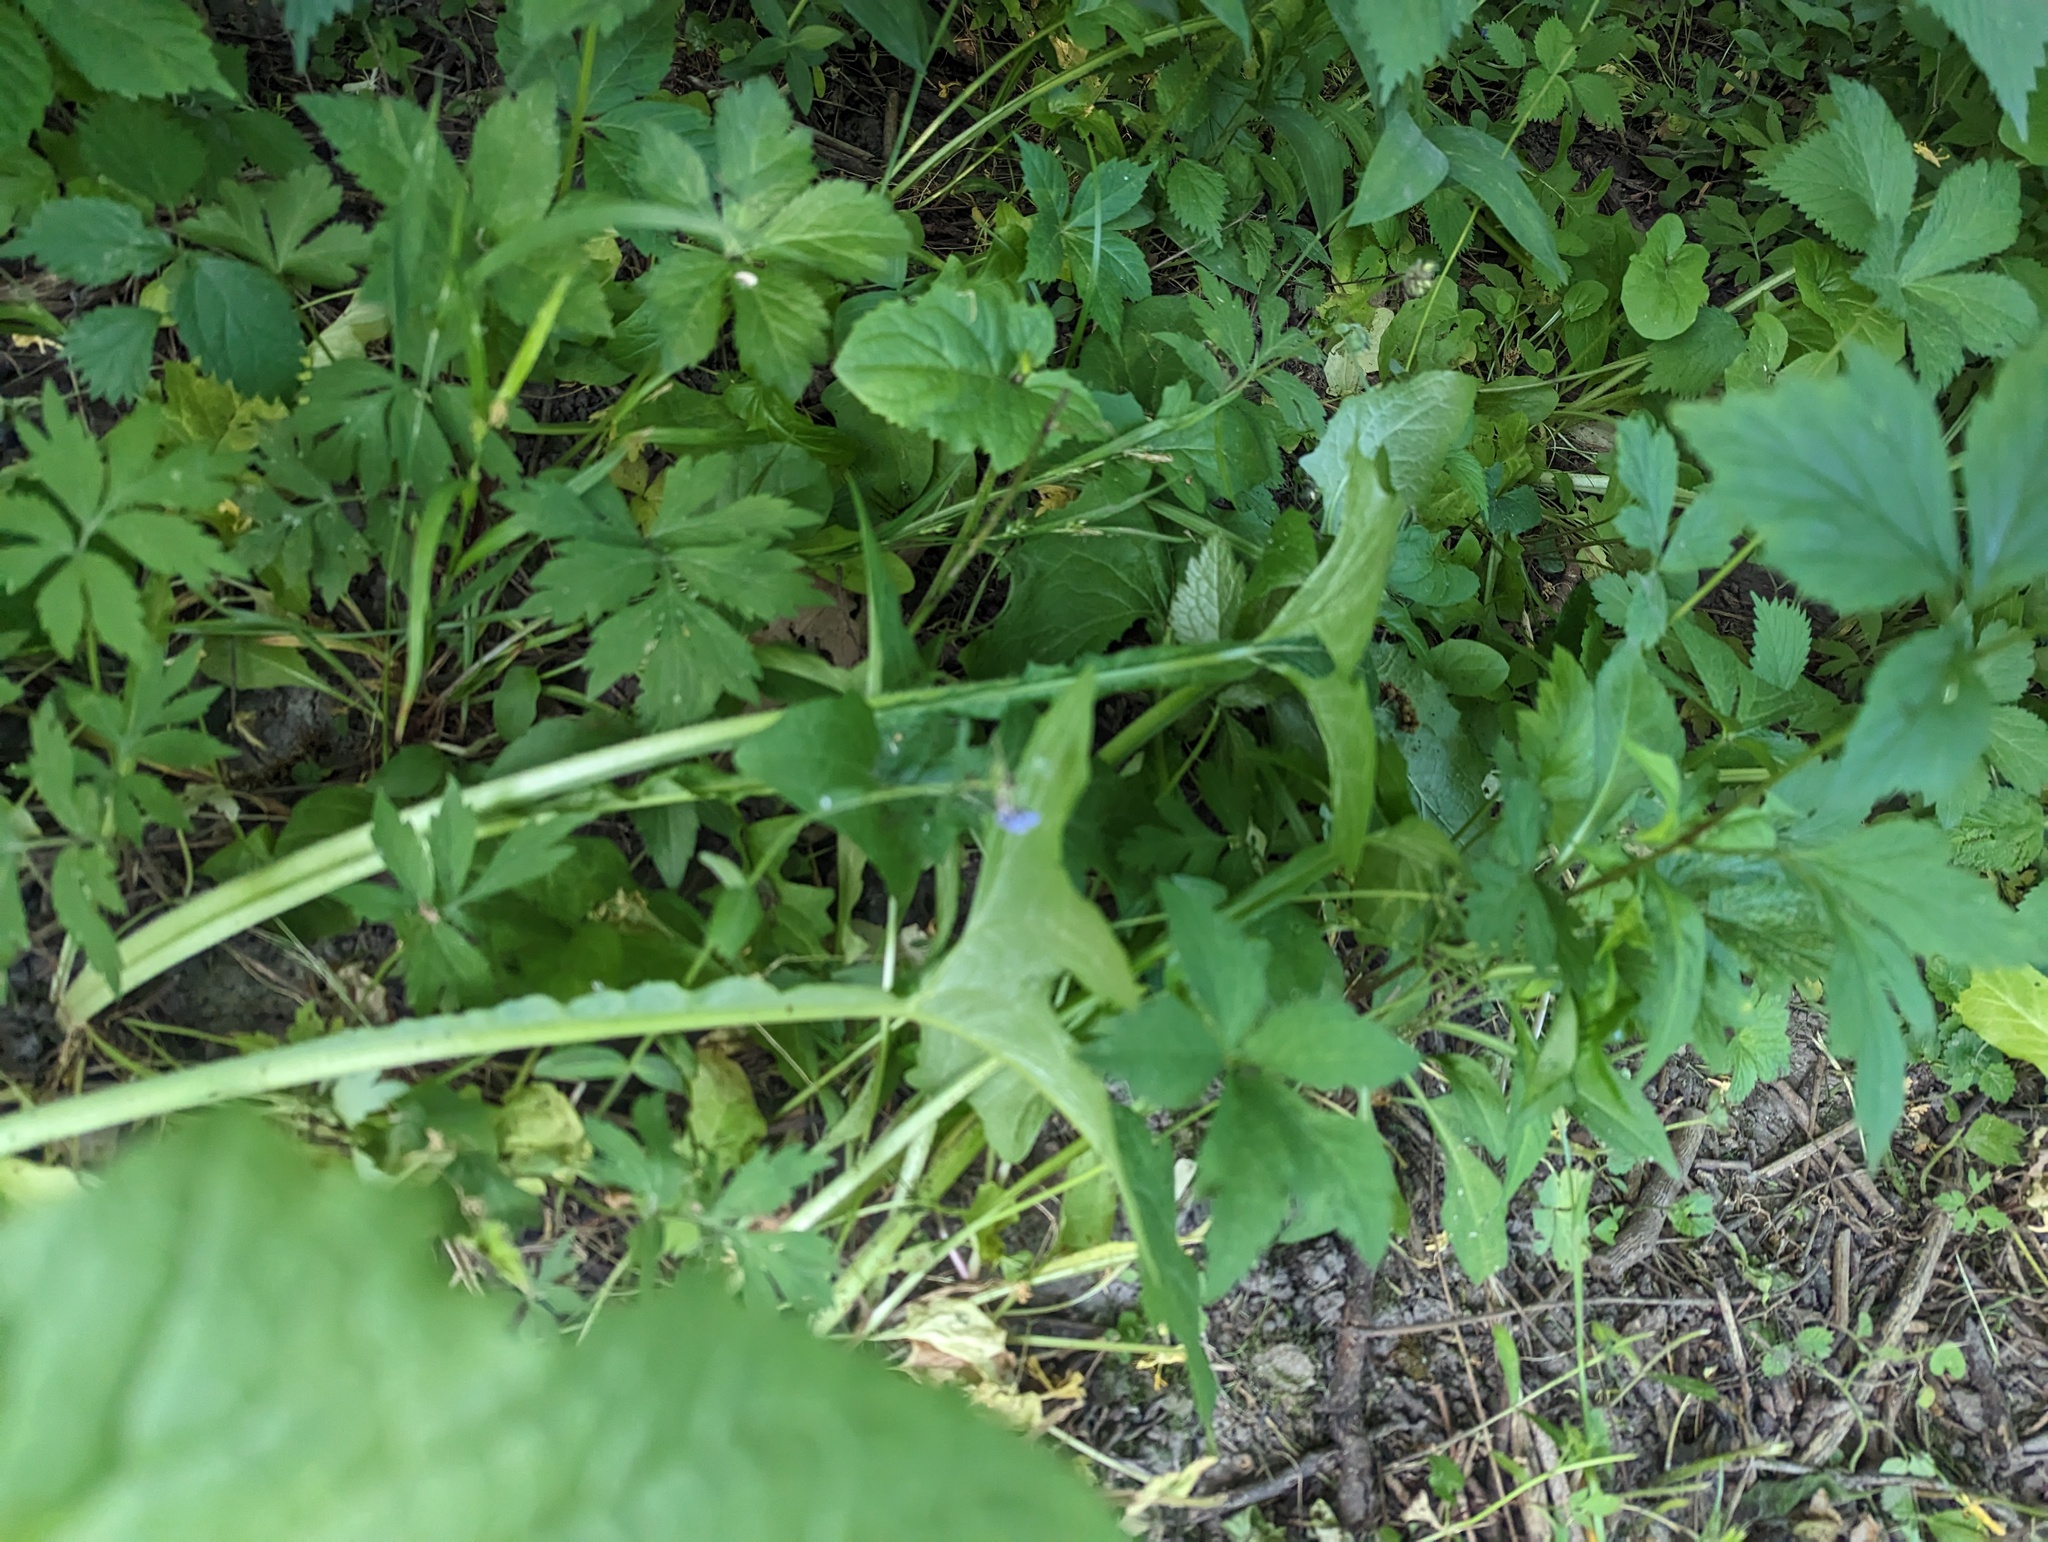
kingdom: Plantae
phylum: Tracheophyta
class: Magnoliopsida
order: Asterales
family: Asteraceae
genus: Nabalus
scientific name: Nabalus crepidineus
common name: Nodding rattlesnakeroot
